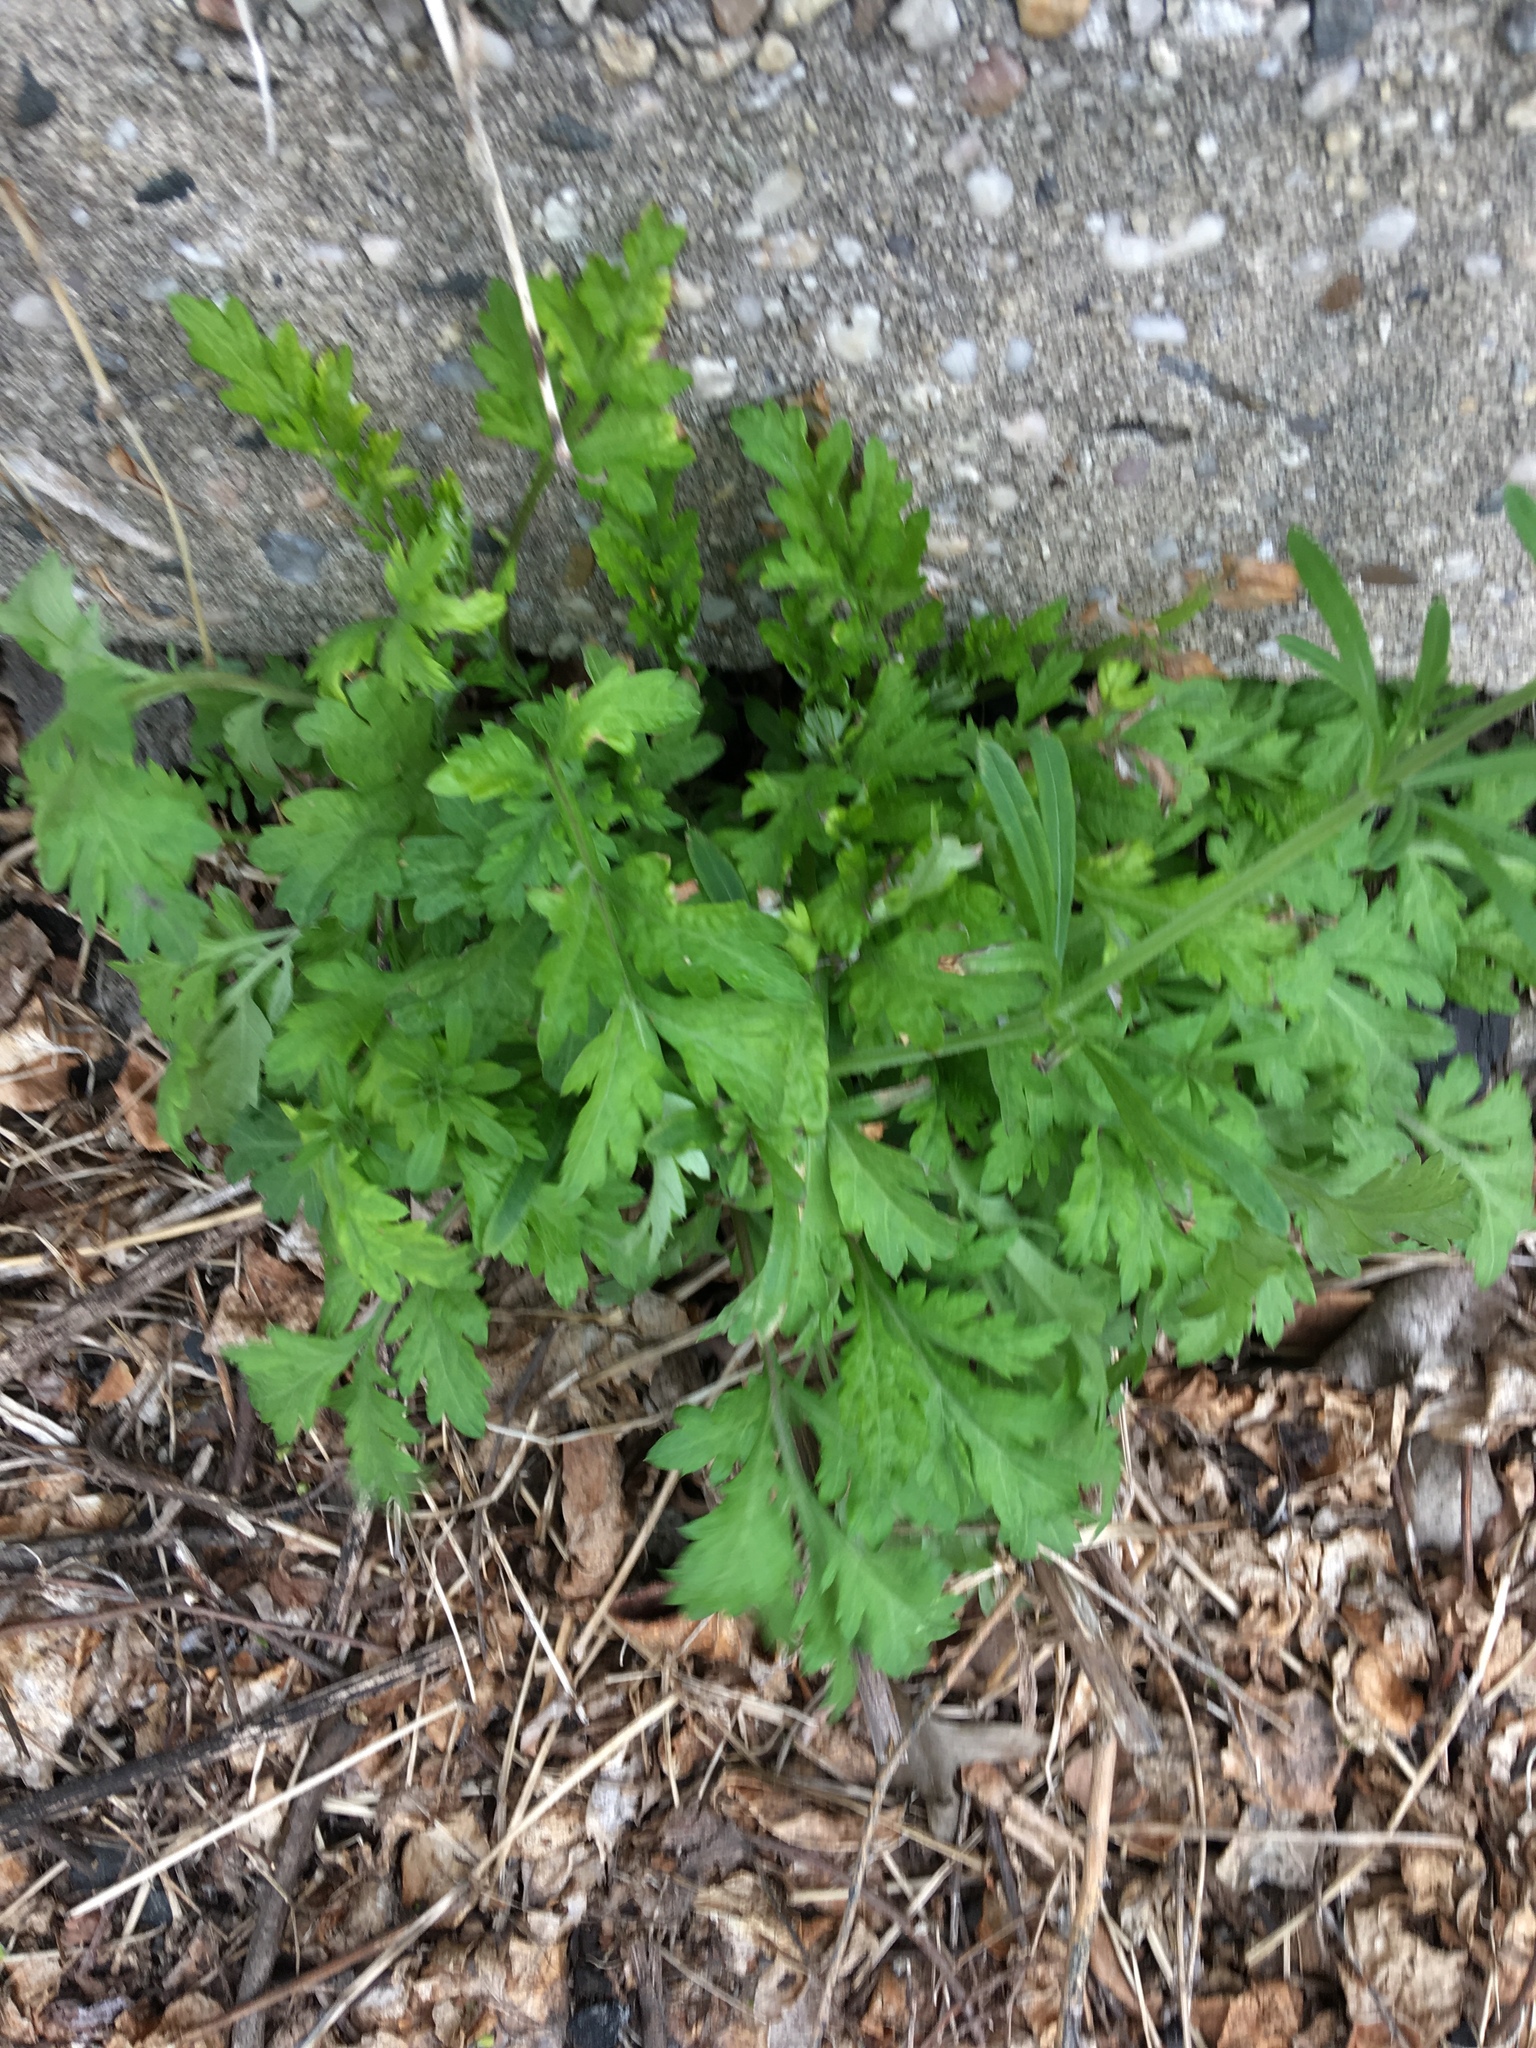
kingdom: Plantae
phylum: Tracheophyta
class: Magnoliopsida
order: Asterales
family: Asteraceae
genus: Artemisia
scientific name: Artemisia vulgaris
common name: Mugwort
